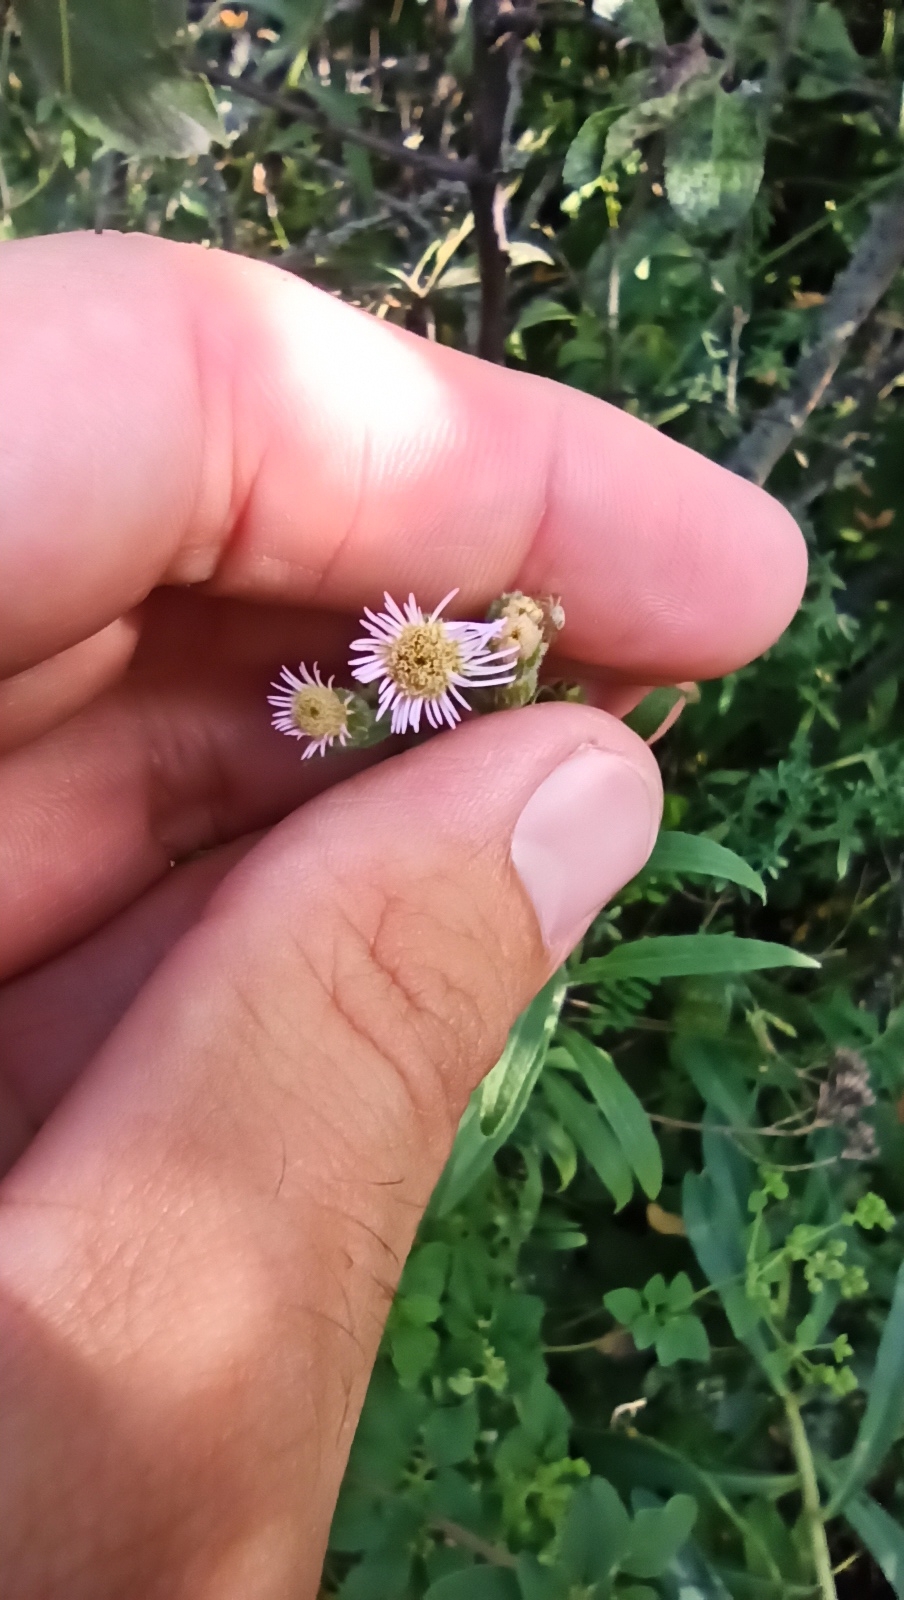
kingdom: Plantae
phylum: Tracheophyta
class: Magnoliopsida
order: Asterales
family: Asteraceae
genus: Erigeron
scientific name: Erigeron acris
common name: Blue fleabane
